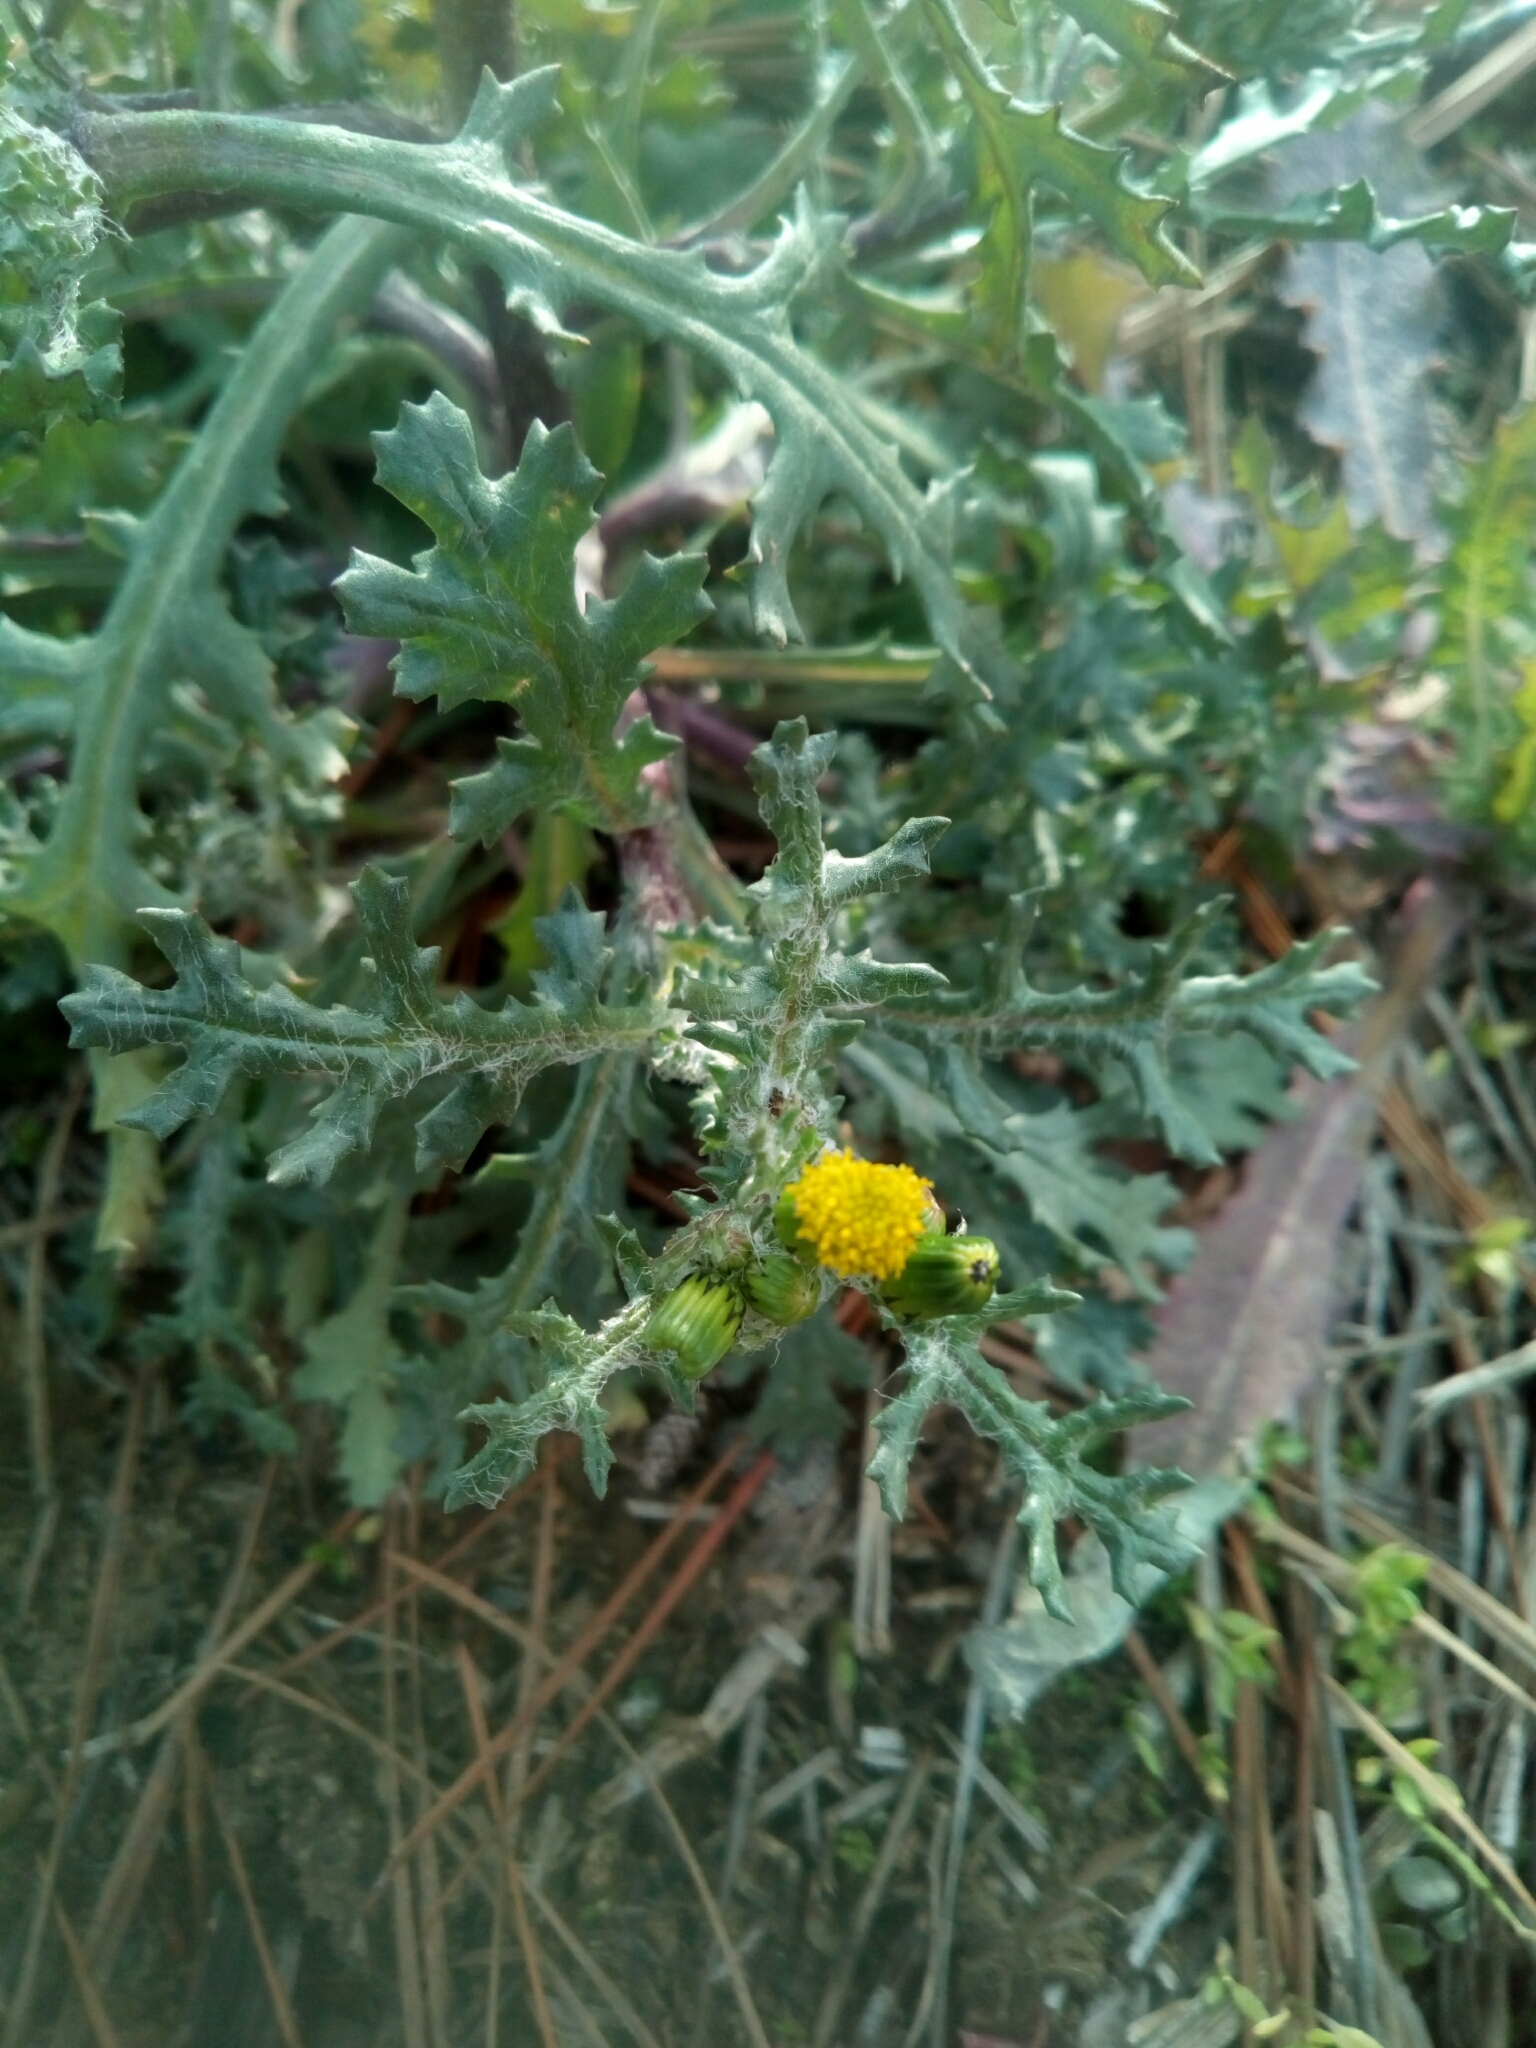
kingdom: Plantae
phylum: Tracheophyta
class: Magnoliopsida
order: Asterales
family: Asteraceae
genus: Senecio
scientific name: Senecio vulgaris
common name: Old-man-in-the-spring
